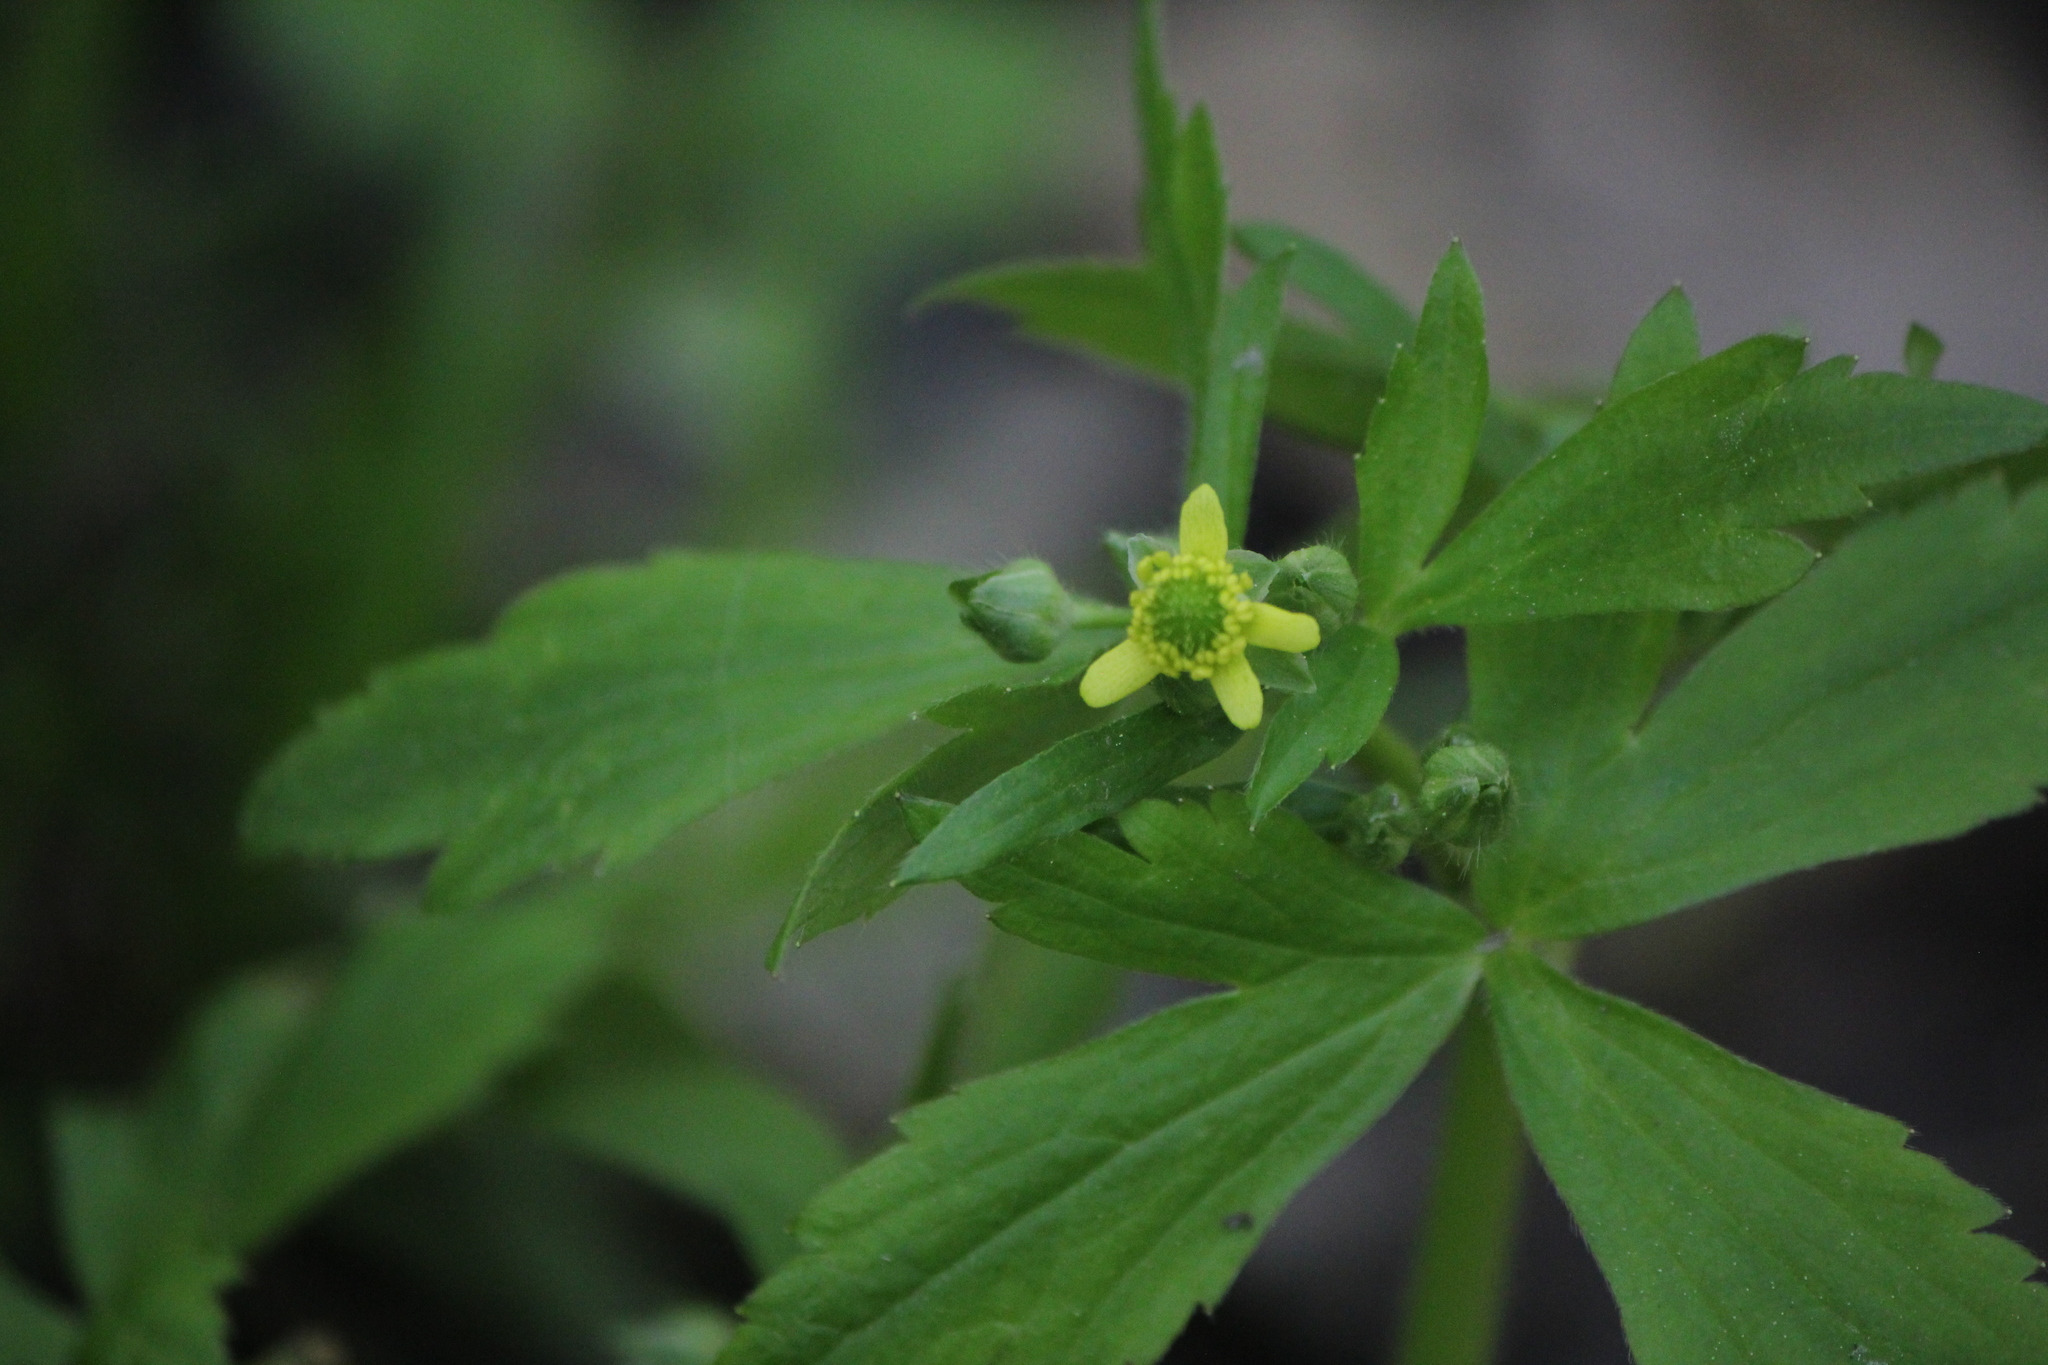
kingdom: Plantae
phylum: Tracheophyta
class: Magnoliopsida
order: Ranunculales
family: Ranunculaceae
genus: Ranunculus
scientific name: Ranunculus recurvatus
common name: Blisterwort
